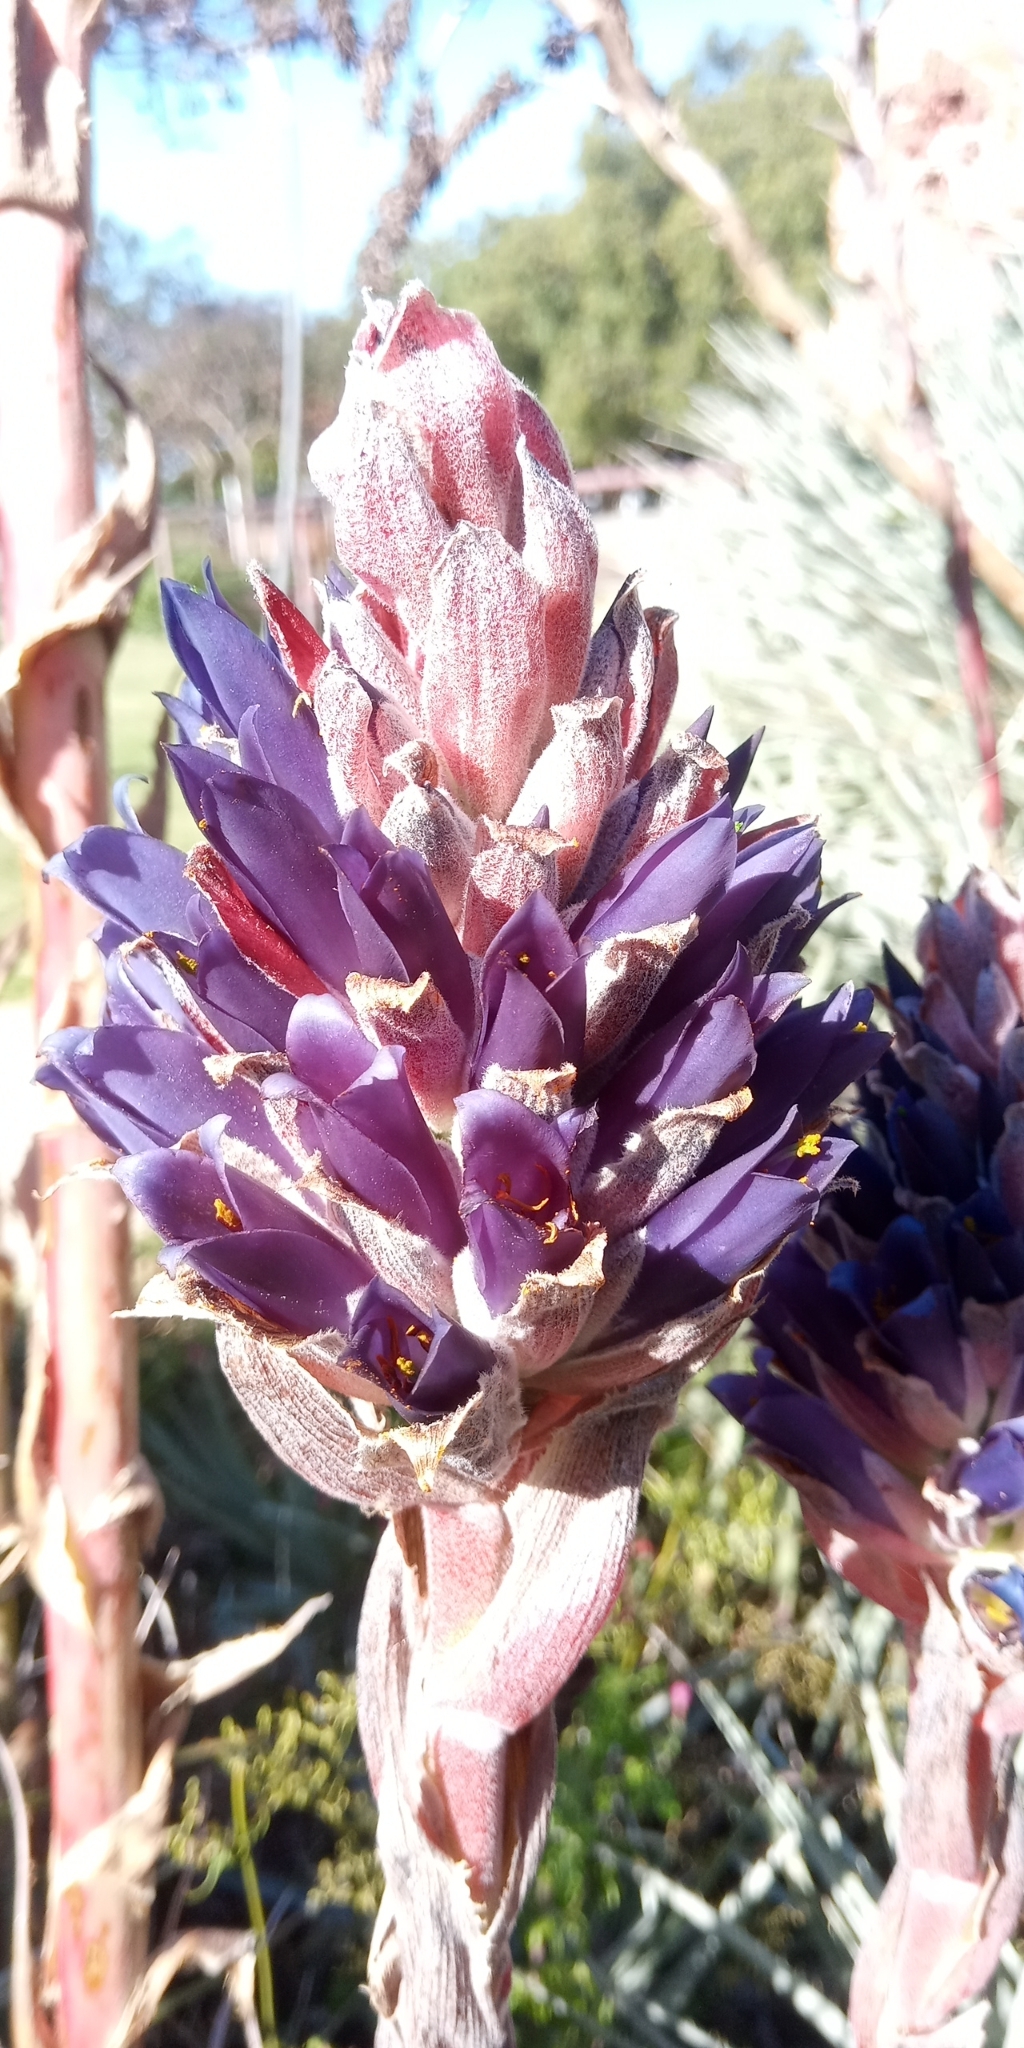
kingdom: Plantae
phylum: Tracheophyta
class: Liliopsida
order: Poales
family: Bromeliaceae
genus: Puya
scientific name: Puya venusta
